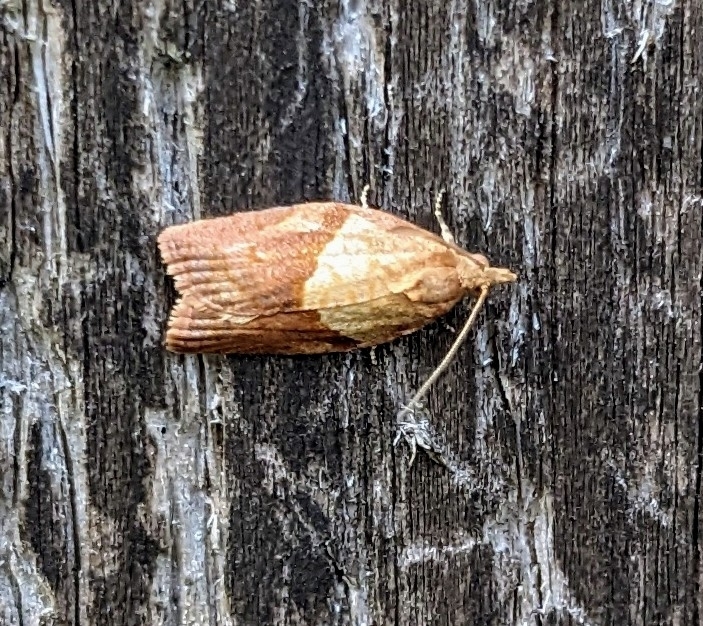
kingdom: Animalia
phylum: Arthropoda
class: Insecta
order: Lepidoptera
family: Tortricidae
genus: Epiphyas
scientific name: Epiphyas postvittana
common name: Light brown apple moth
